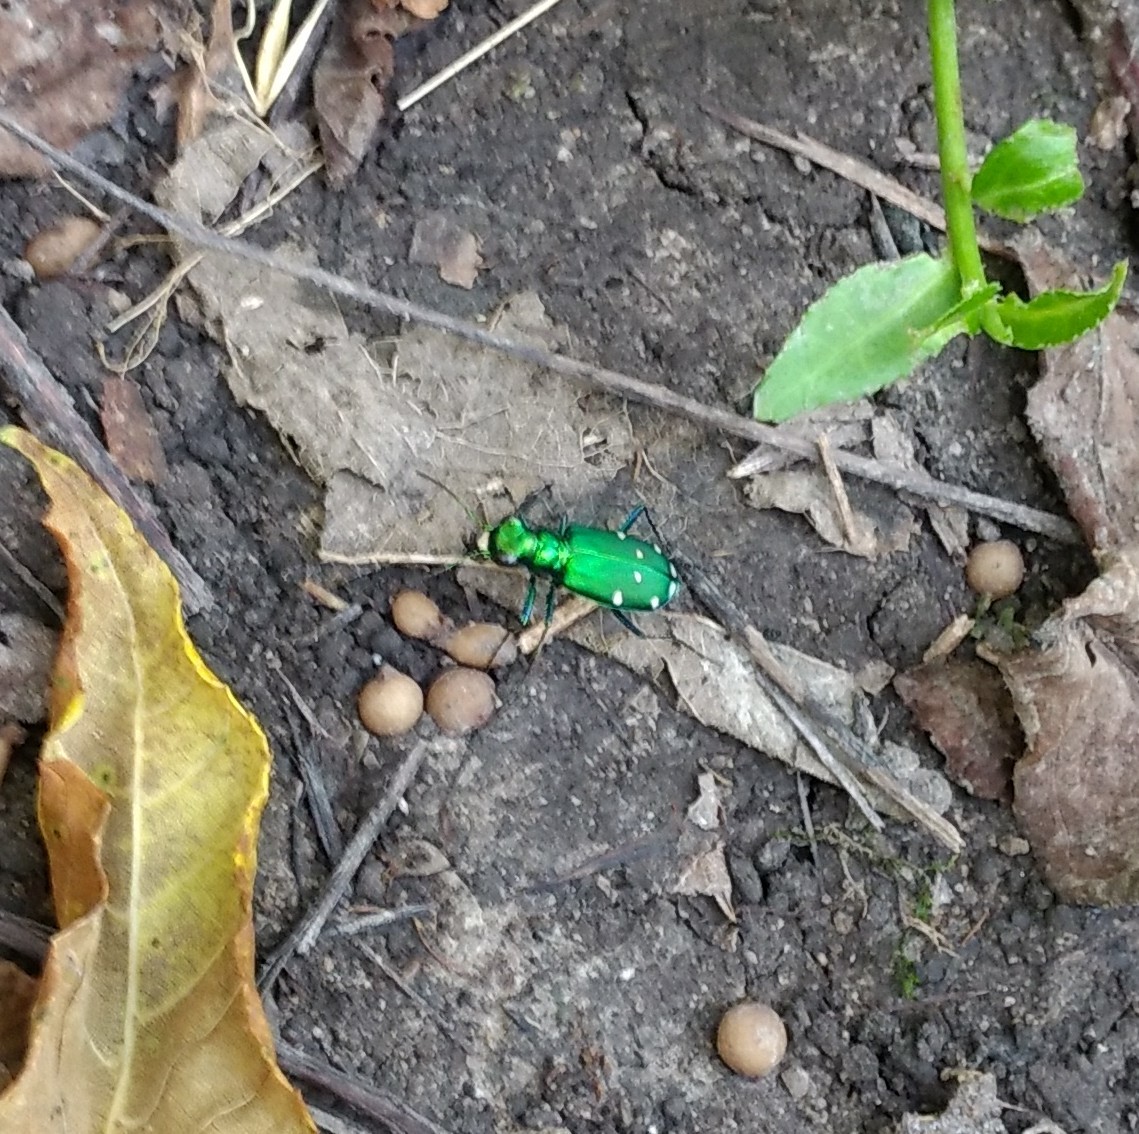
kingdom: Animalia
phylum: Arthropoda
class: Insecta
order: Coleoptera
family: Carabidae
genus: Cicindela
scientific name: Cicindela sexguttata
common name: Six-spotted tiger beetle
